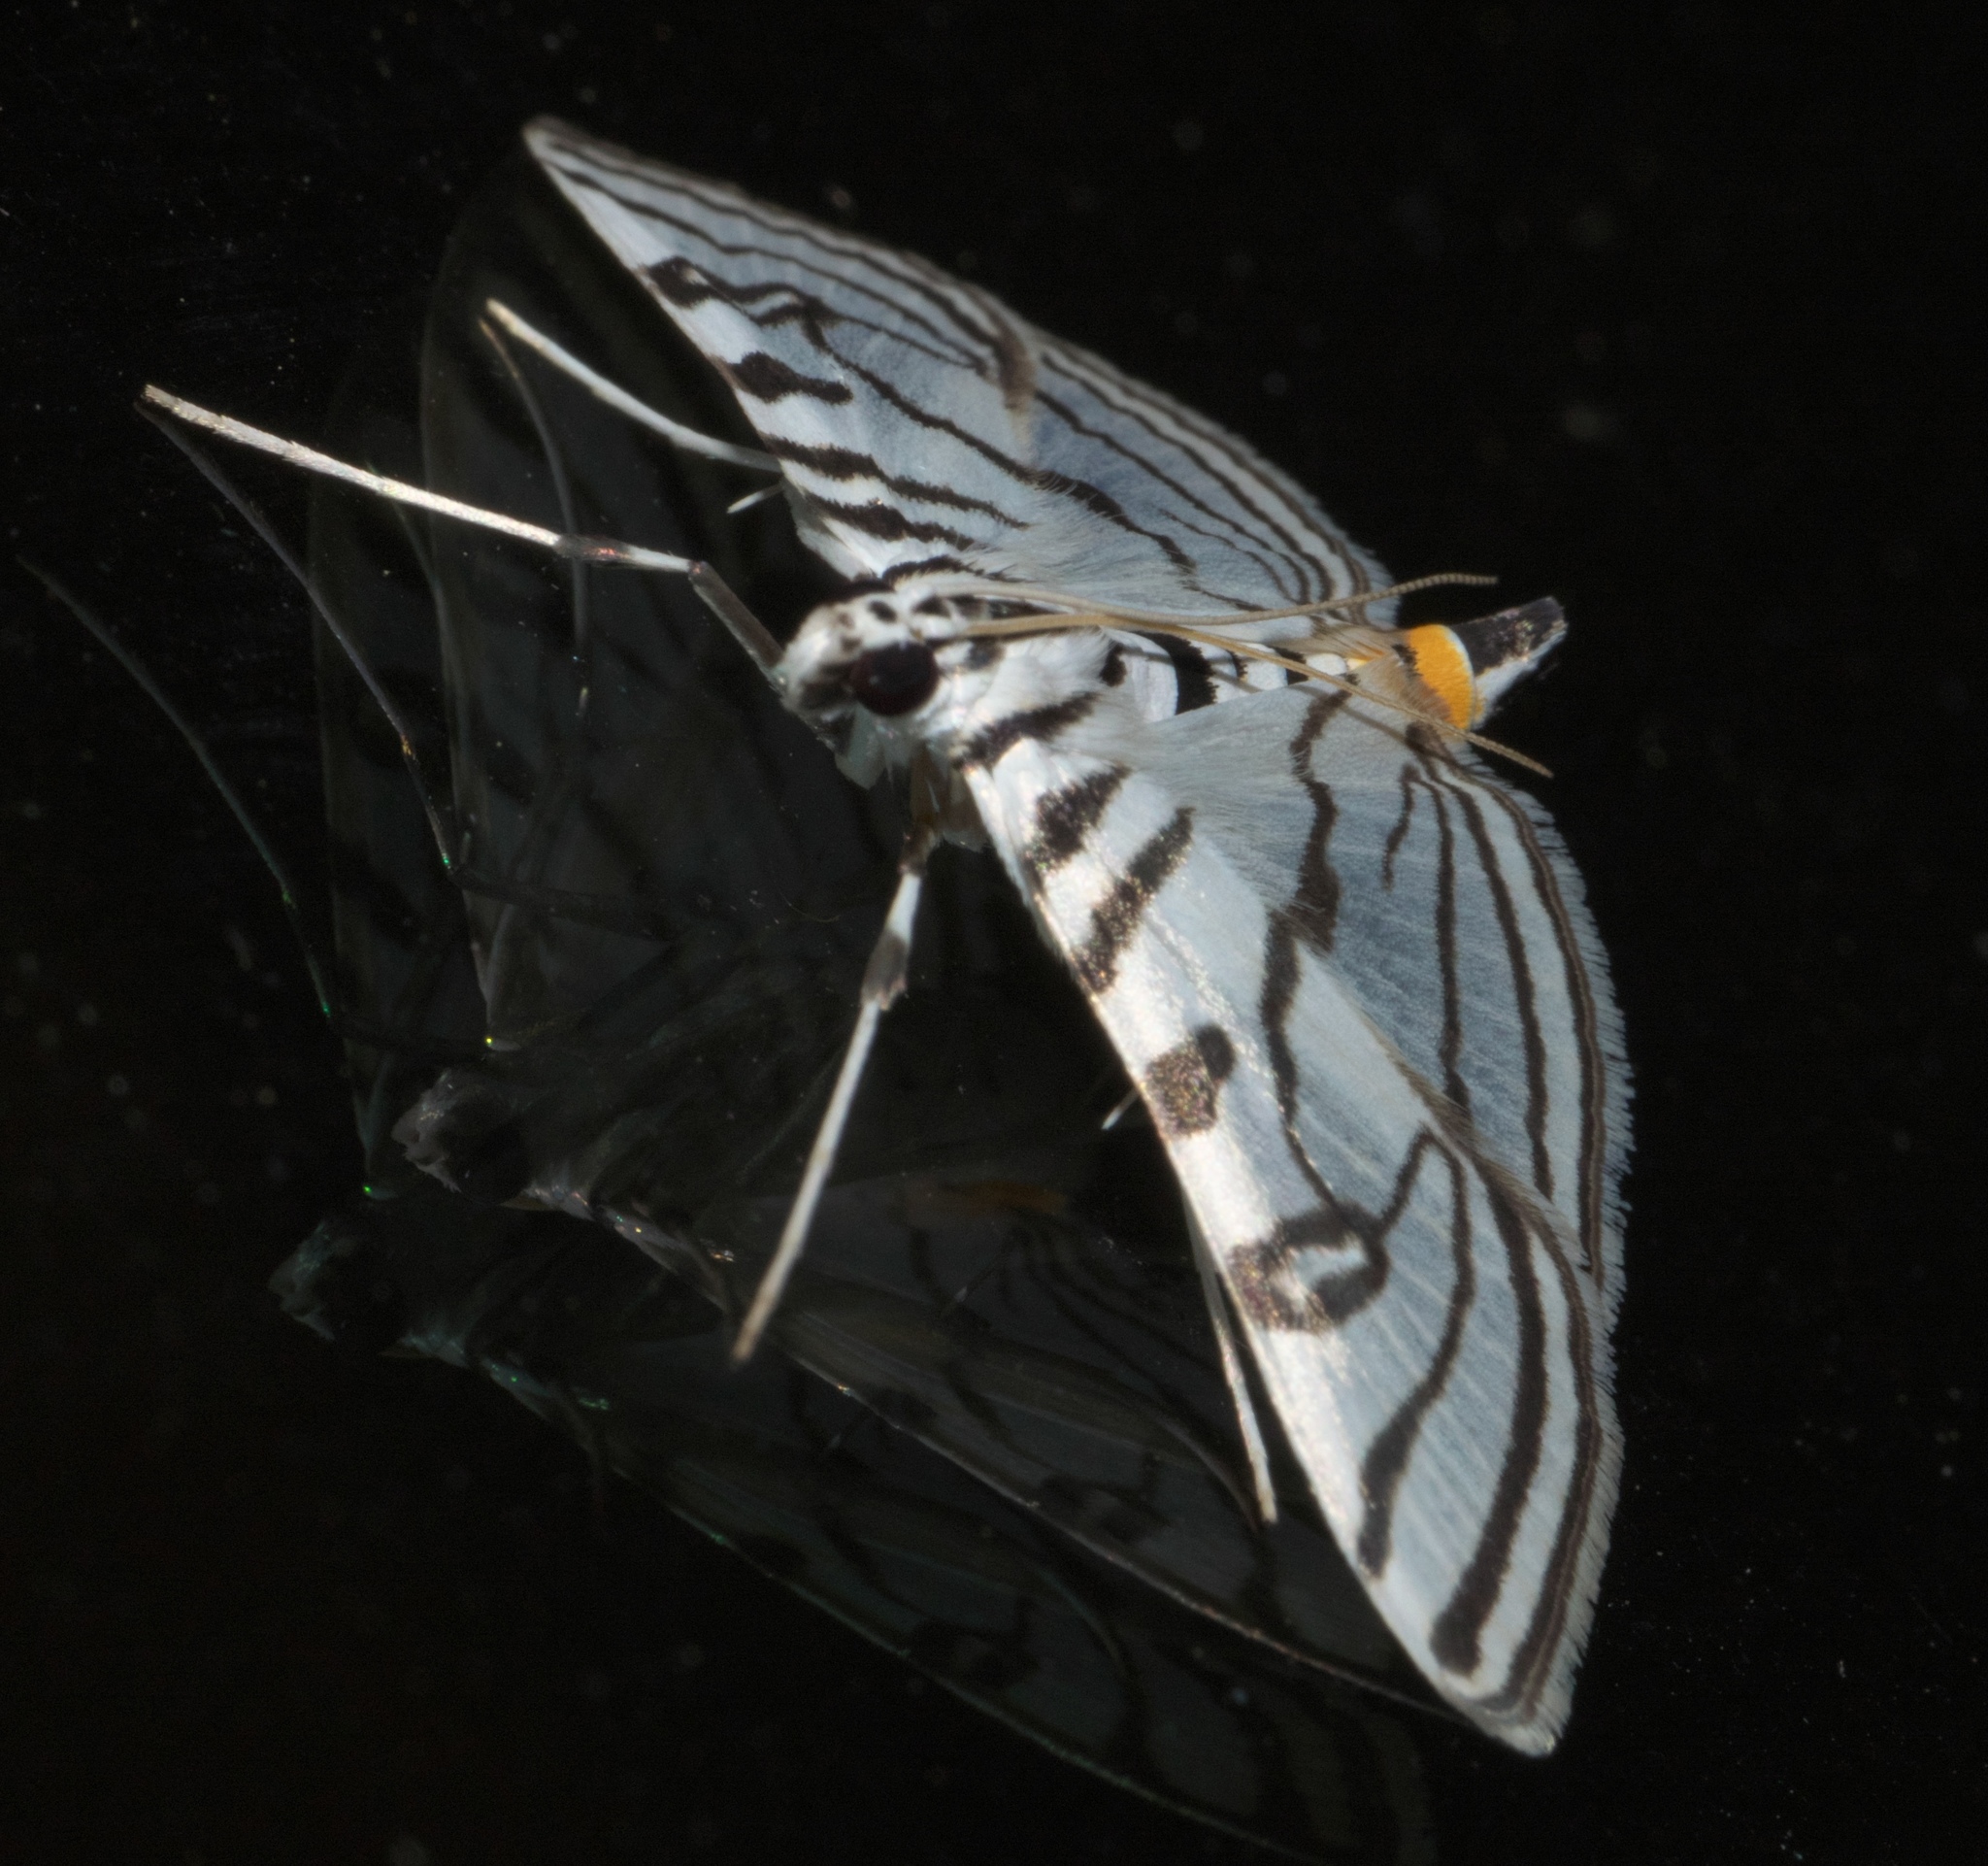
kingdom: Animalia
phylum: Arthropoda
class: Insecta
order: Lepidoptera
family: Crambidae
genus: Conchylodes
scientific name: Conchylodes ovulalis
